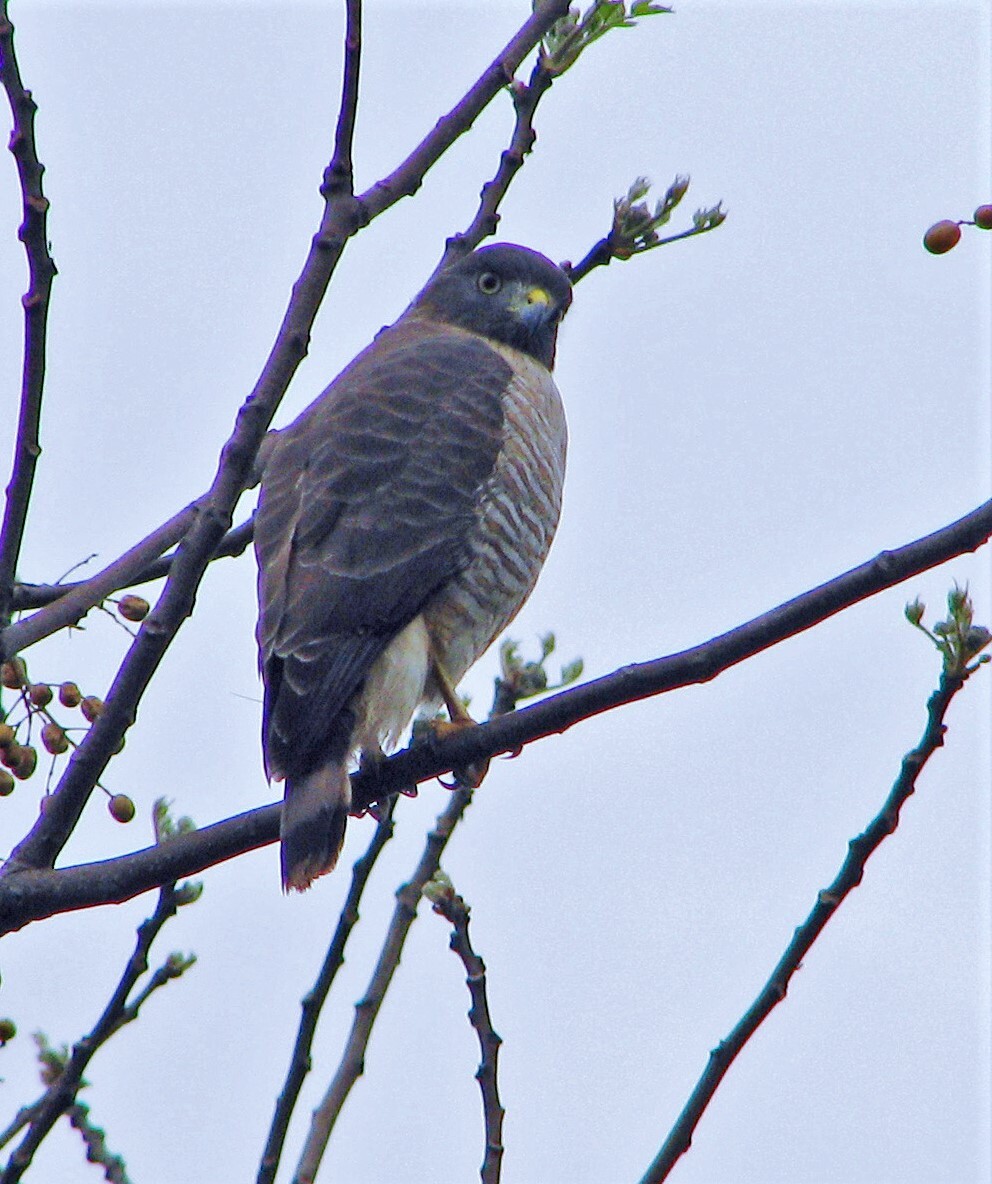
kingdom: Animalia
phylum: Chordata
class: Aves
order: Accipitriformes
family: Accipitridae
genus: Rupornis
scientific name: Rupornis magnirostris
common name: Roadside hawk
